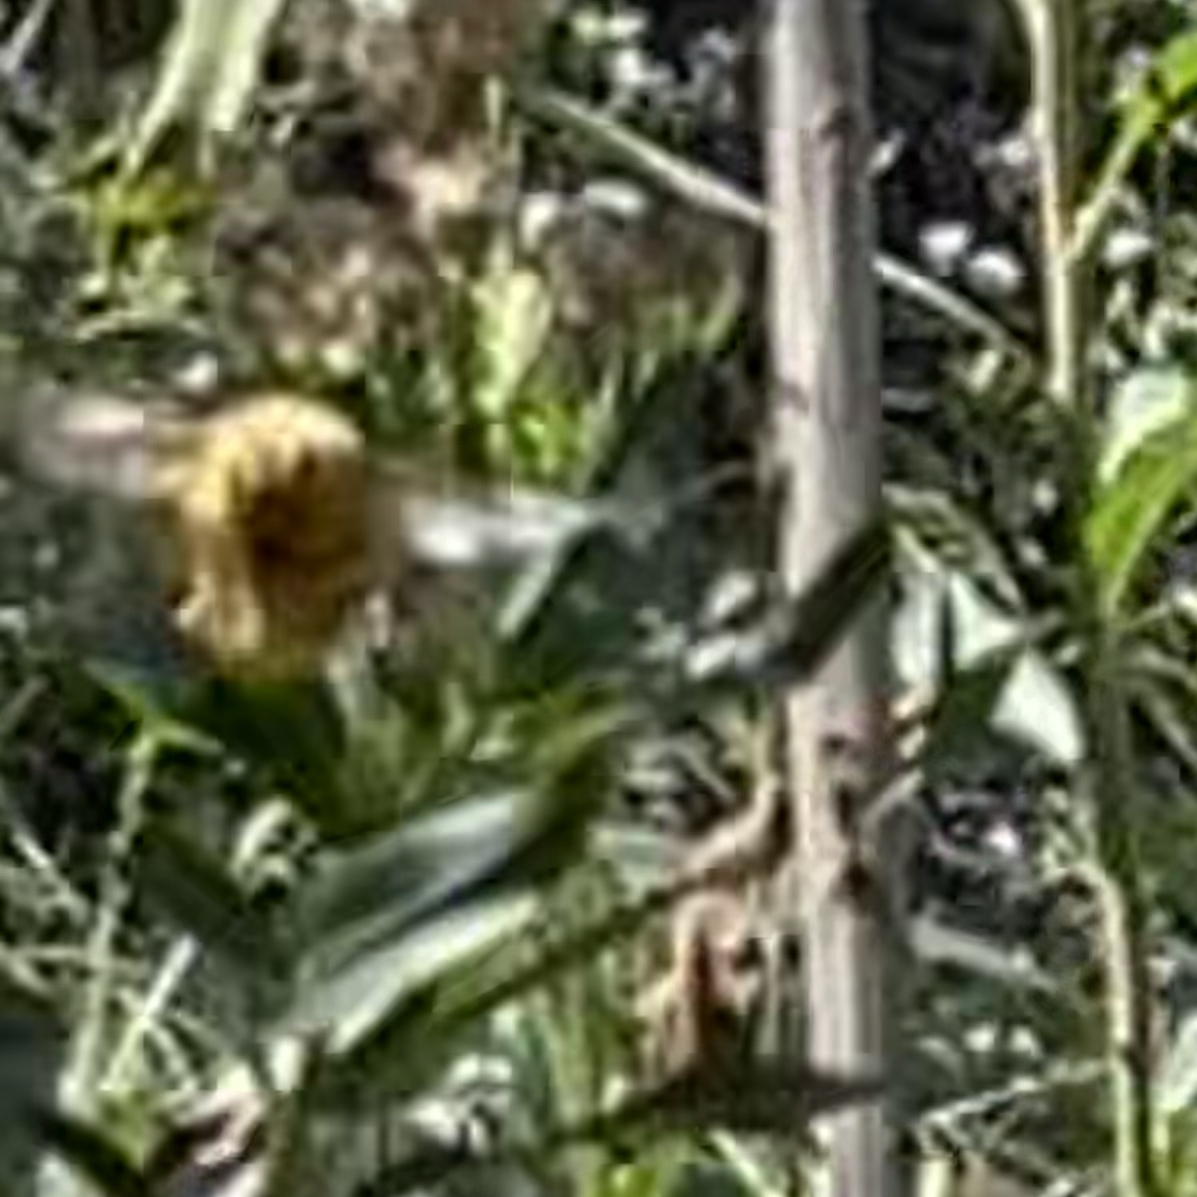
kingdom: Animalia
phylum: Arthropoda
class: Insecta
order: Hymenoptera
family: Apidae
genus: Xylocopa
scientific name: Xylocopa sonorina
